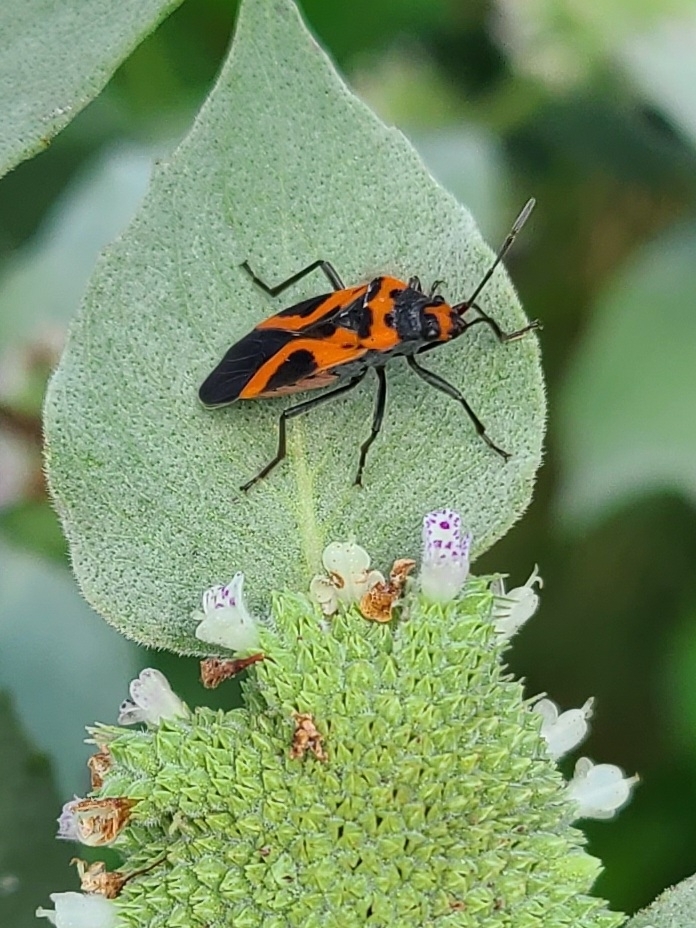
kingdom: Animalia
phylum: Arthropoda
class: Insecta
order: Hemiptera
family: Lygaeidae
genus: Lygaeus
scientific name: Lygaeus turcicus
